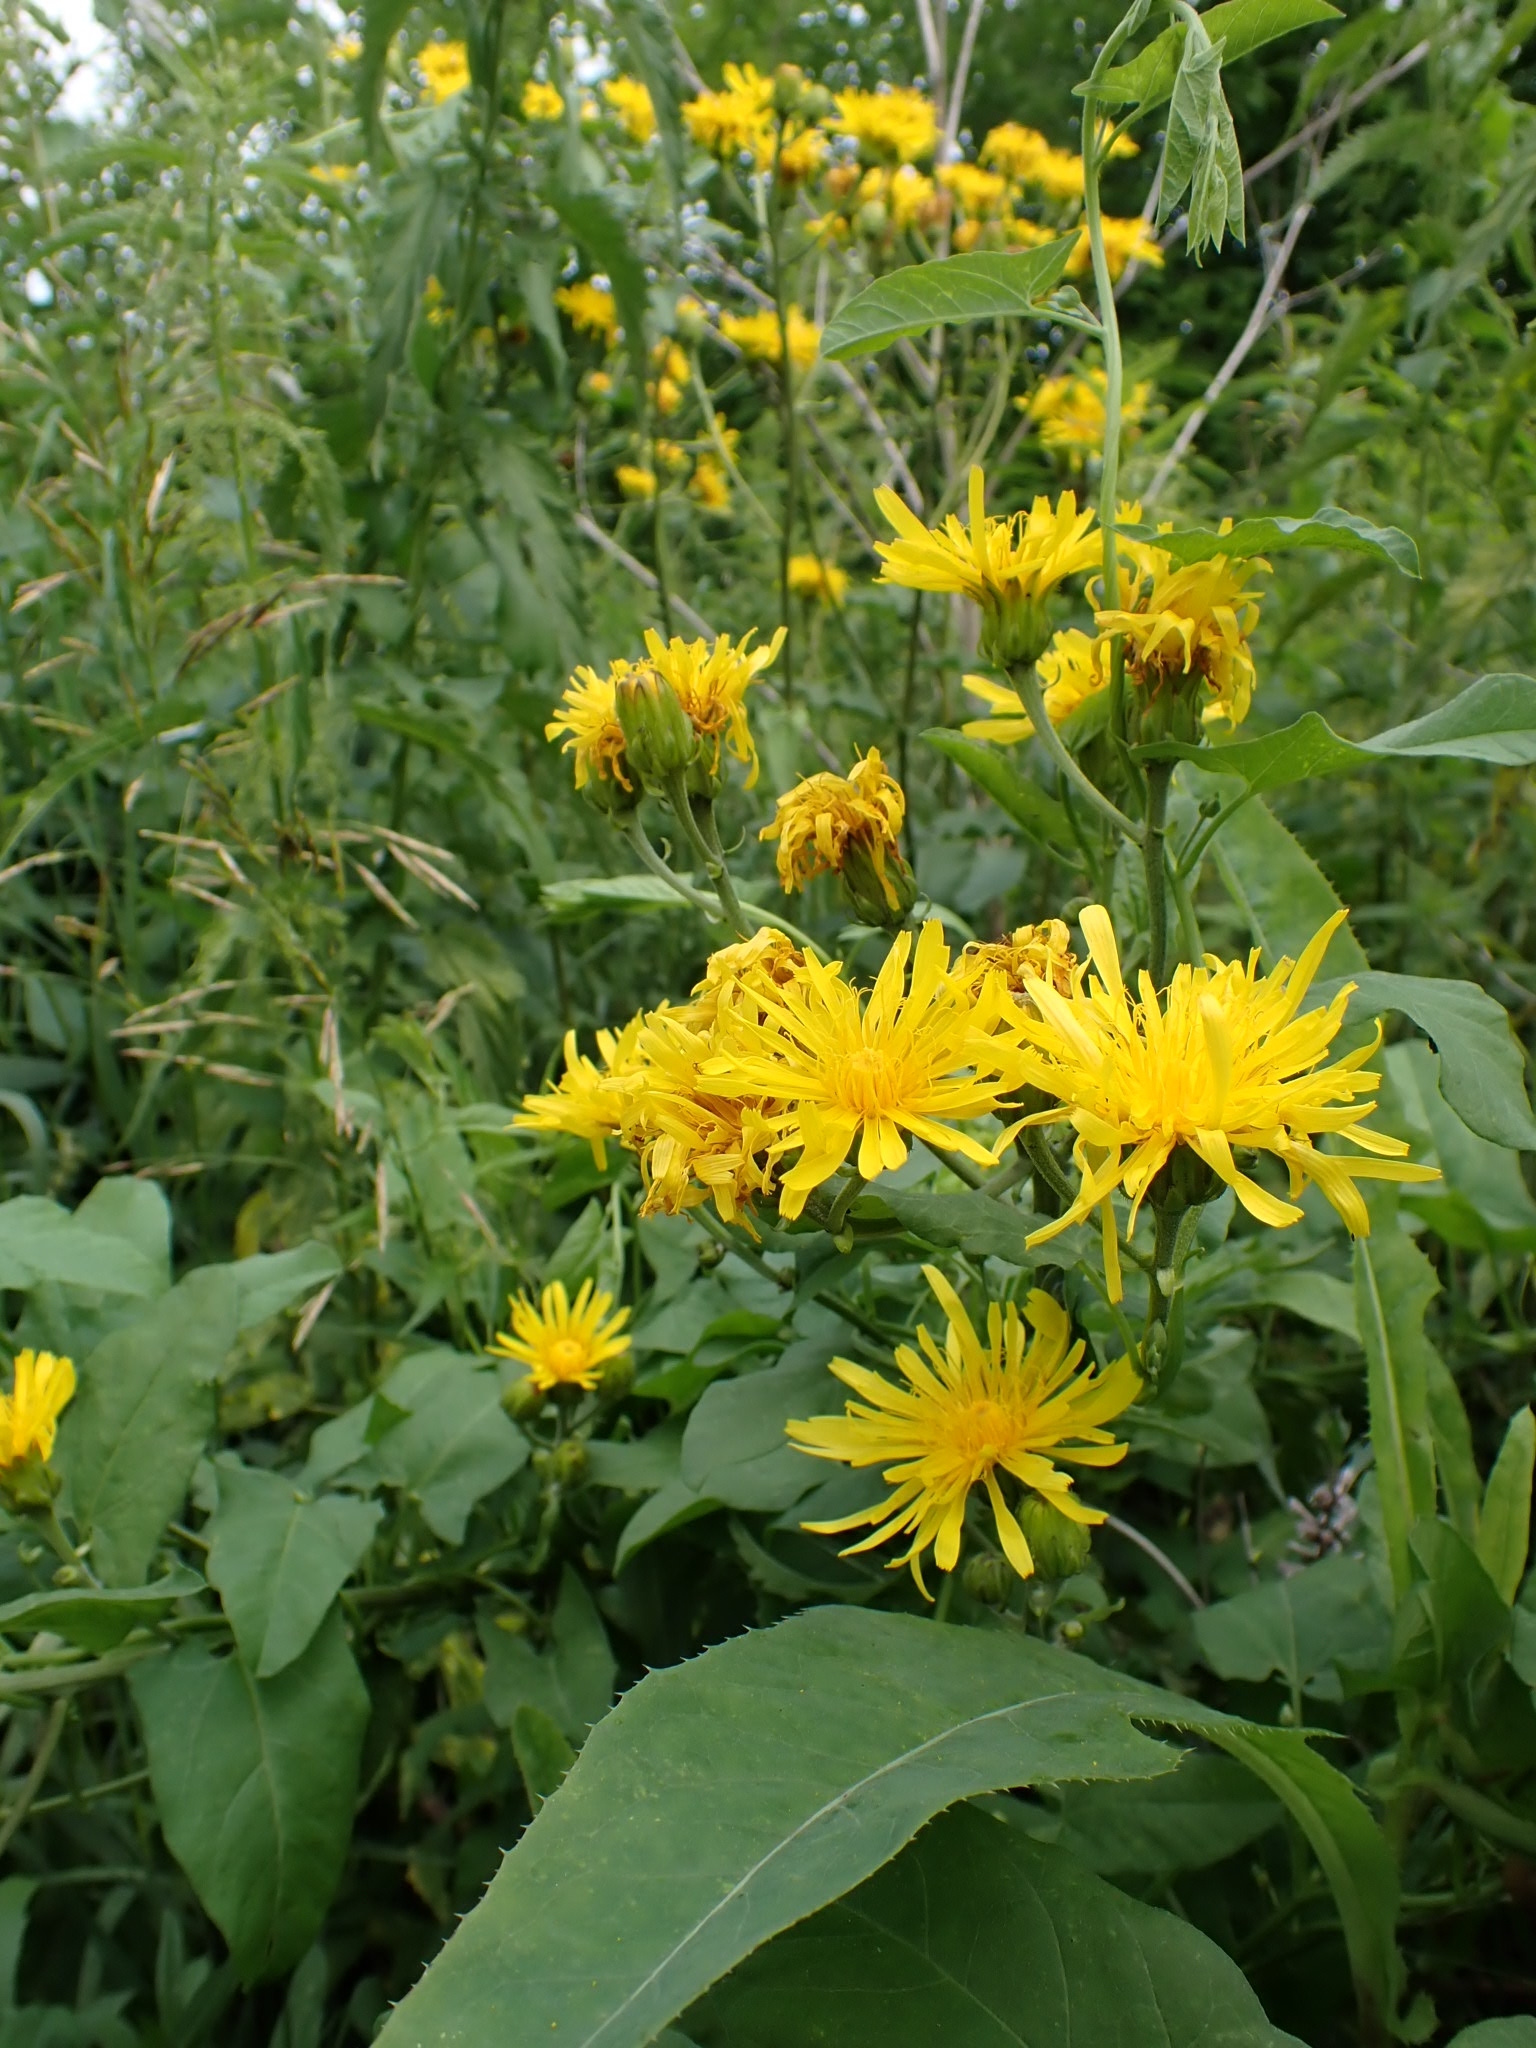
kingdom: Plantae
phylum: Tracheophyta
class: Magnoliopsida
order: Asterales
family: Asteraceae
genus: Crepis
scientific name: Crepis sibirica
